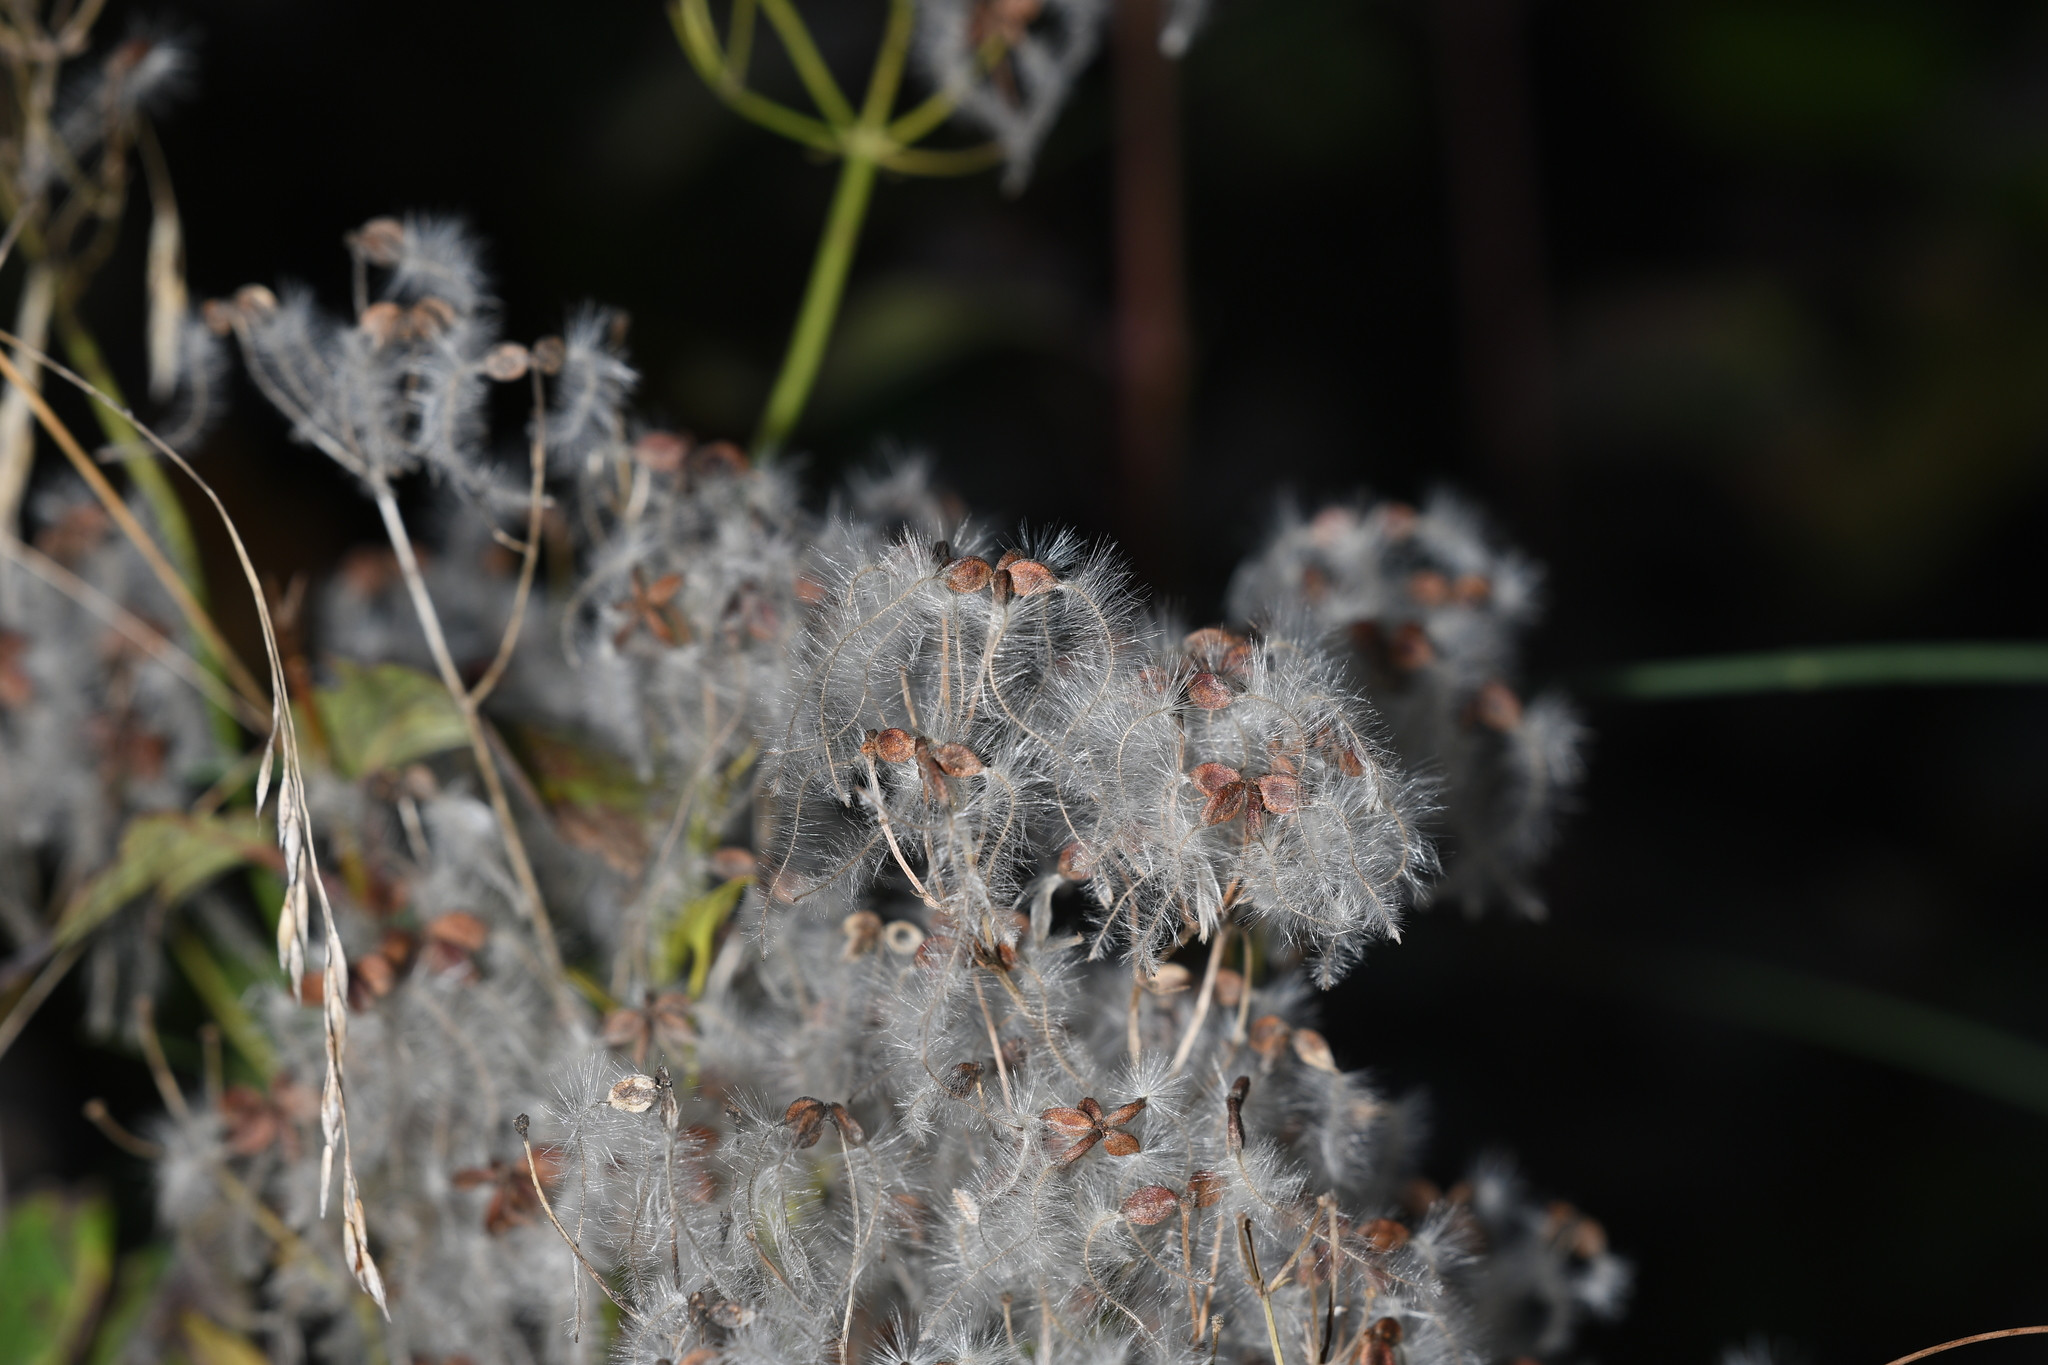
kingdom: Plantae
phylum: Tracheophyta
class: Magnoliopsida
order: Ranunculales
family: Ranunculaceae
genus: Clematis
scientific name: Clematis vitalba
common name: Evergreen clematis
